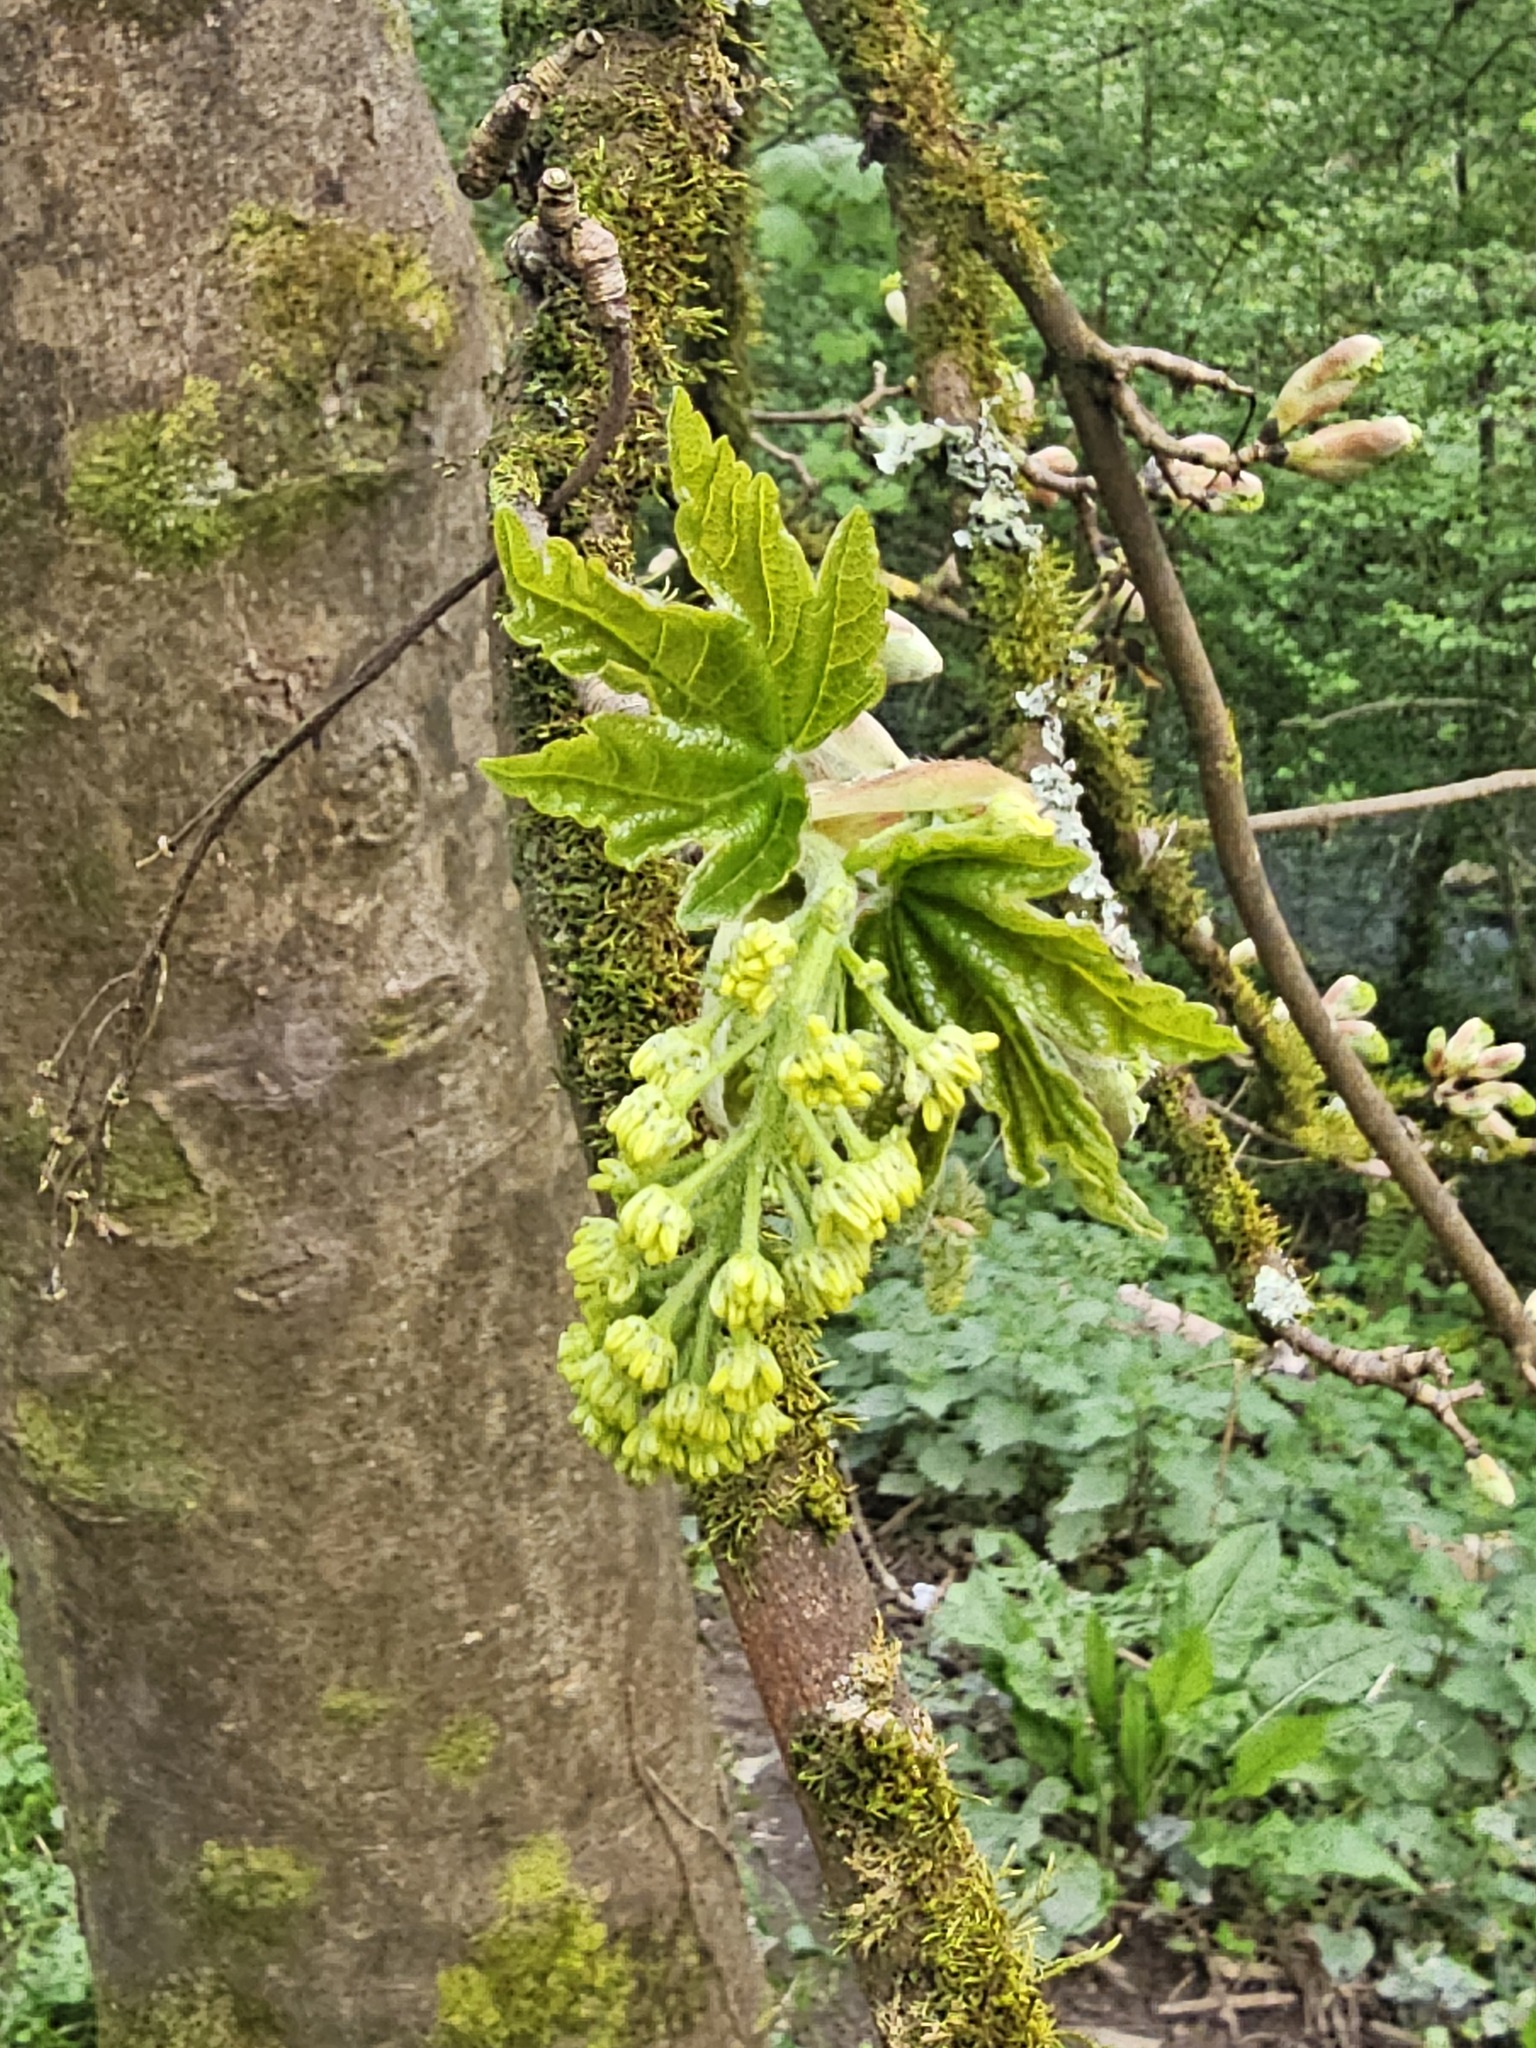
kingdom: Plantae
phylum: Tracheophyta
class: Magnoliopsida
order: Sapindales
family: Sapindaceae
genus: Acer
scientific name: Acer pseudoplatanus
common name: Sycamore
